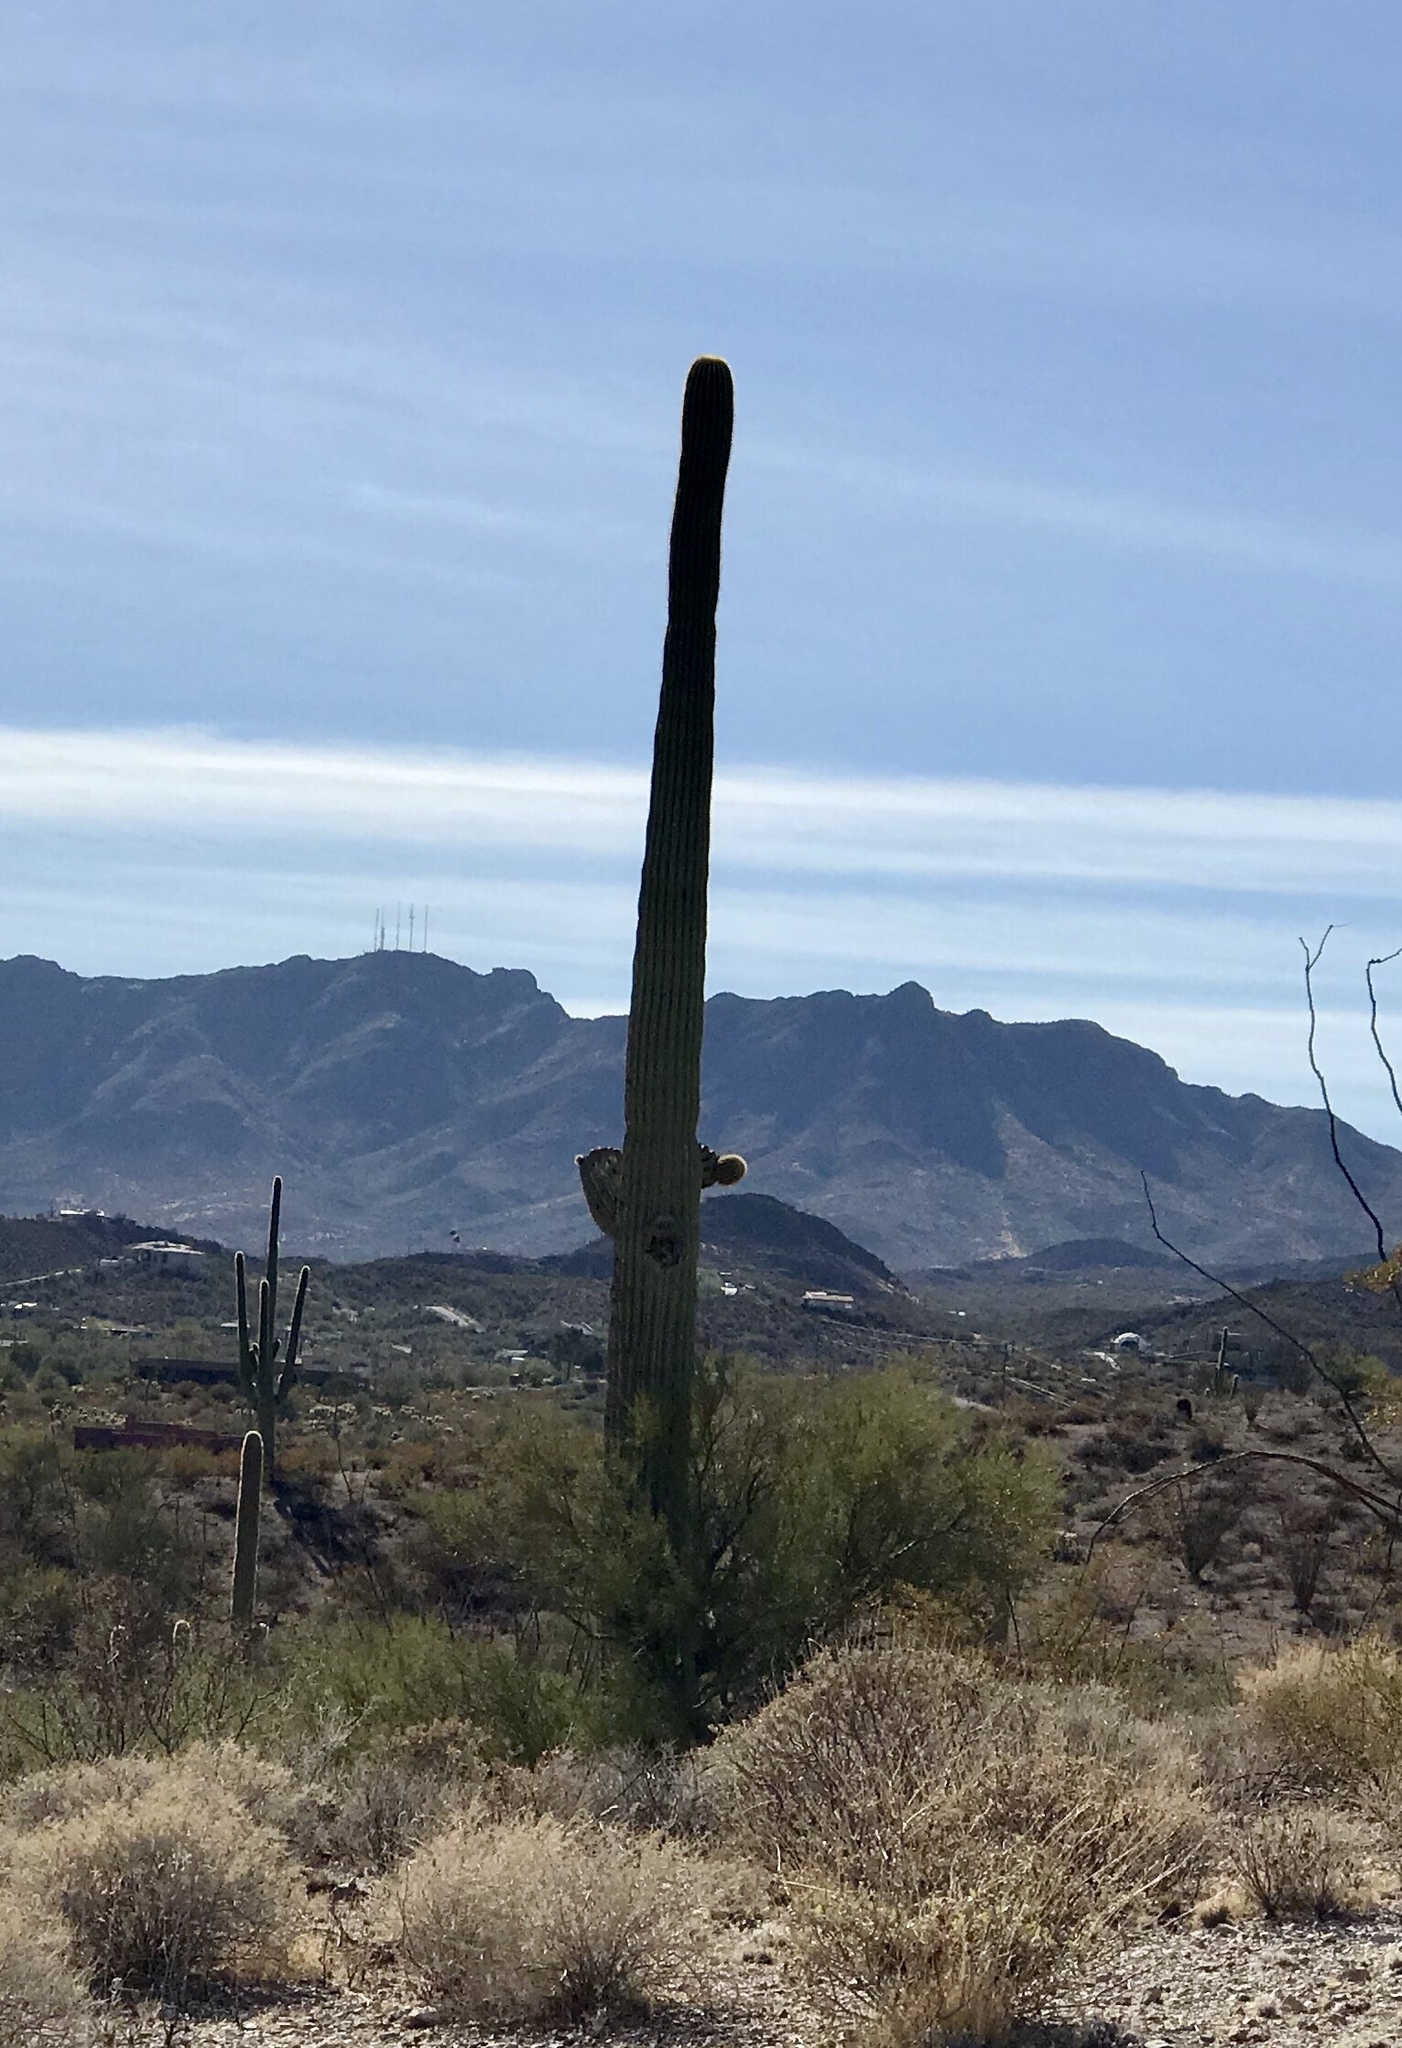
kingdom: Plantae
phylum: Tracheophyta
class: Magnoliopsida
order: Caryophyllales
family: Cactaceae
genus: Carnegiea
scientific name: Carnegiea gigantea
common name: Saguaro
